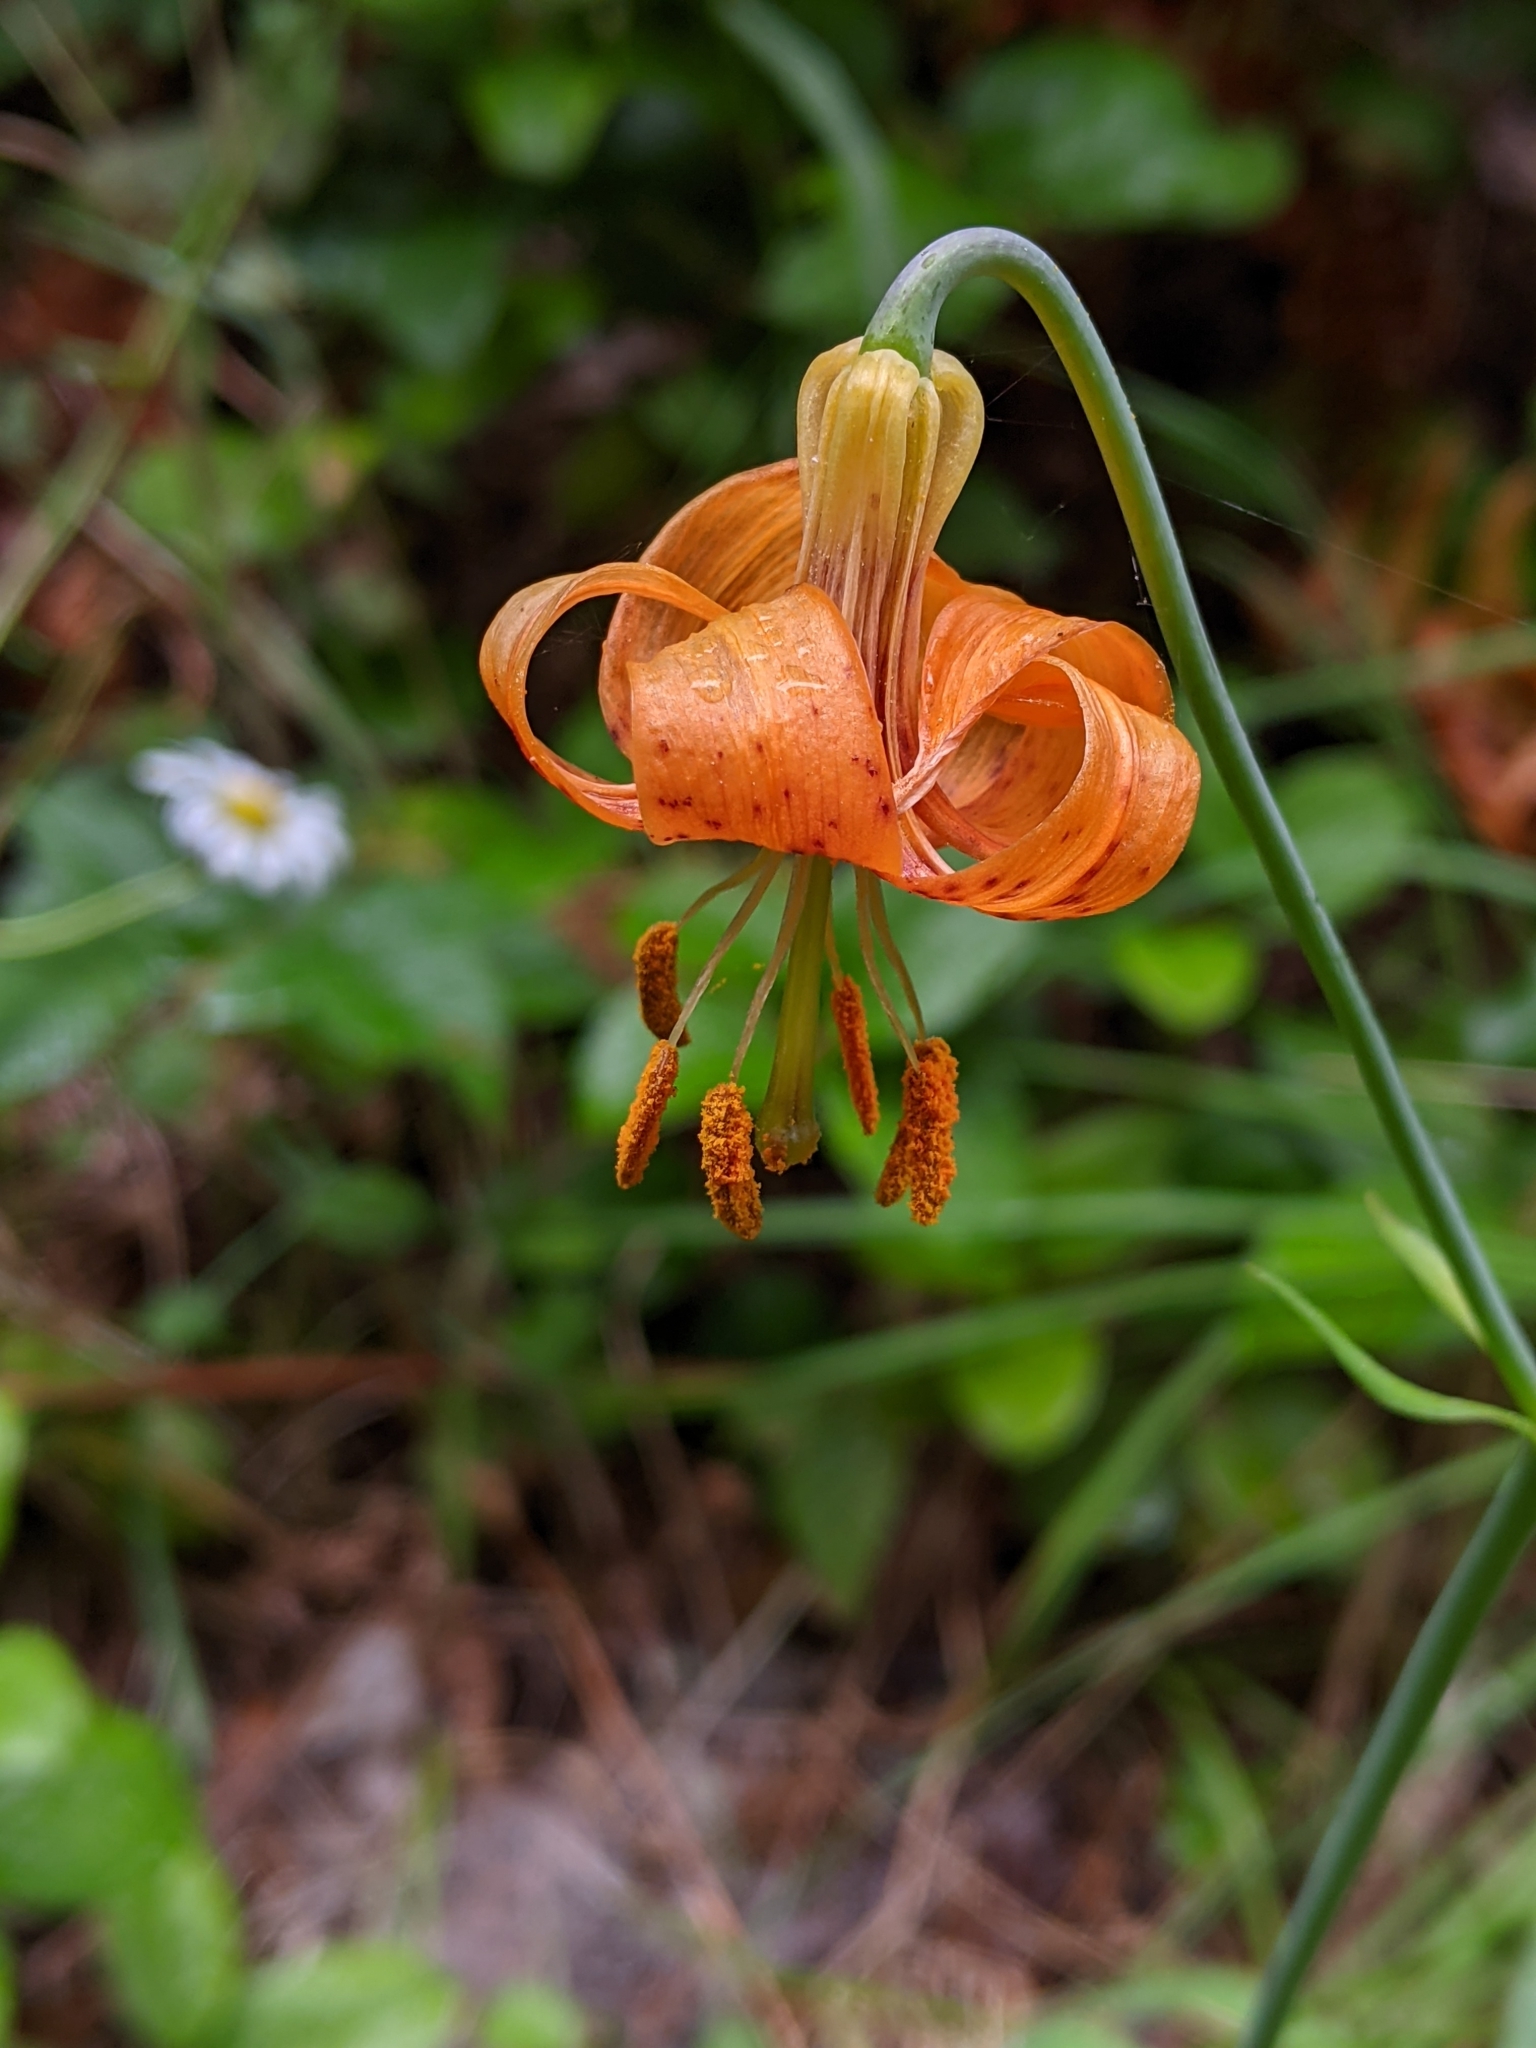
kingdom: Plantae
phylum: Tracheophyta
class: Liliopsida
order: Liliales
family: Liliaceae
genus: Lilium
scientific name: Lilium columbianum
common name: Columbia lily
